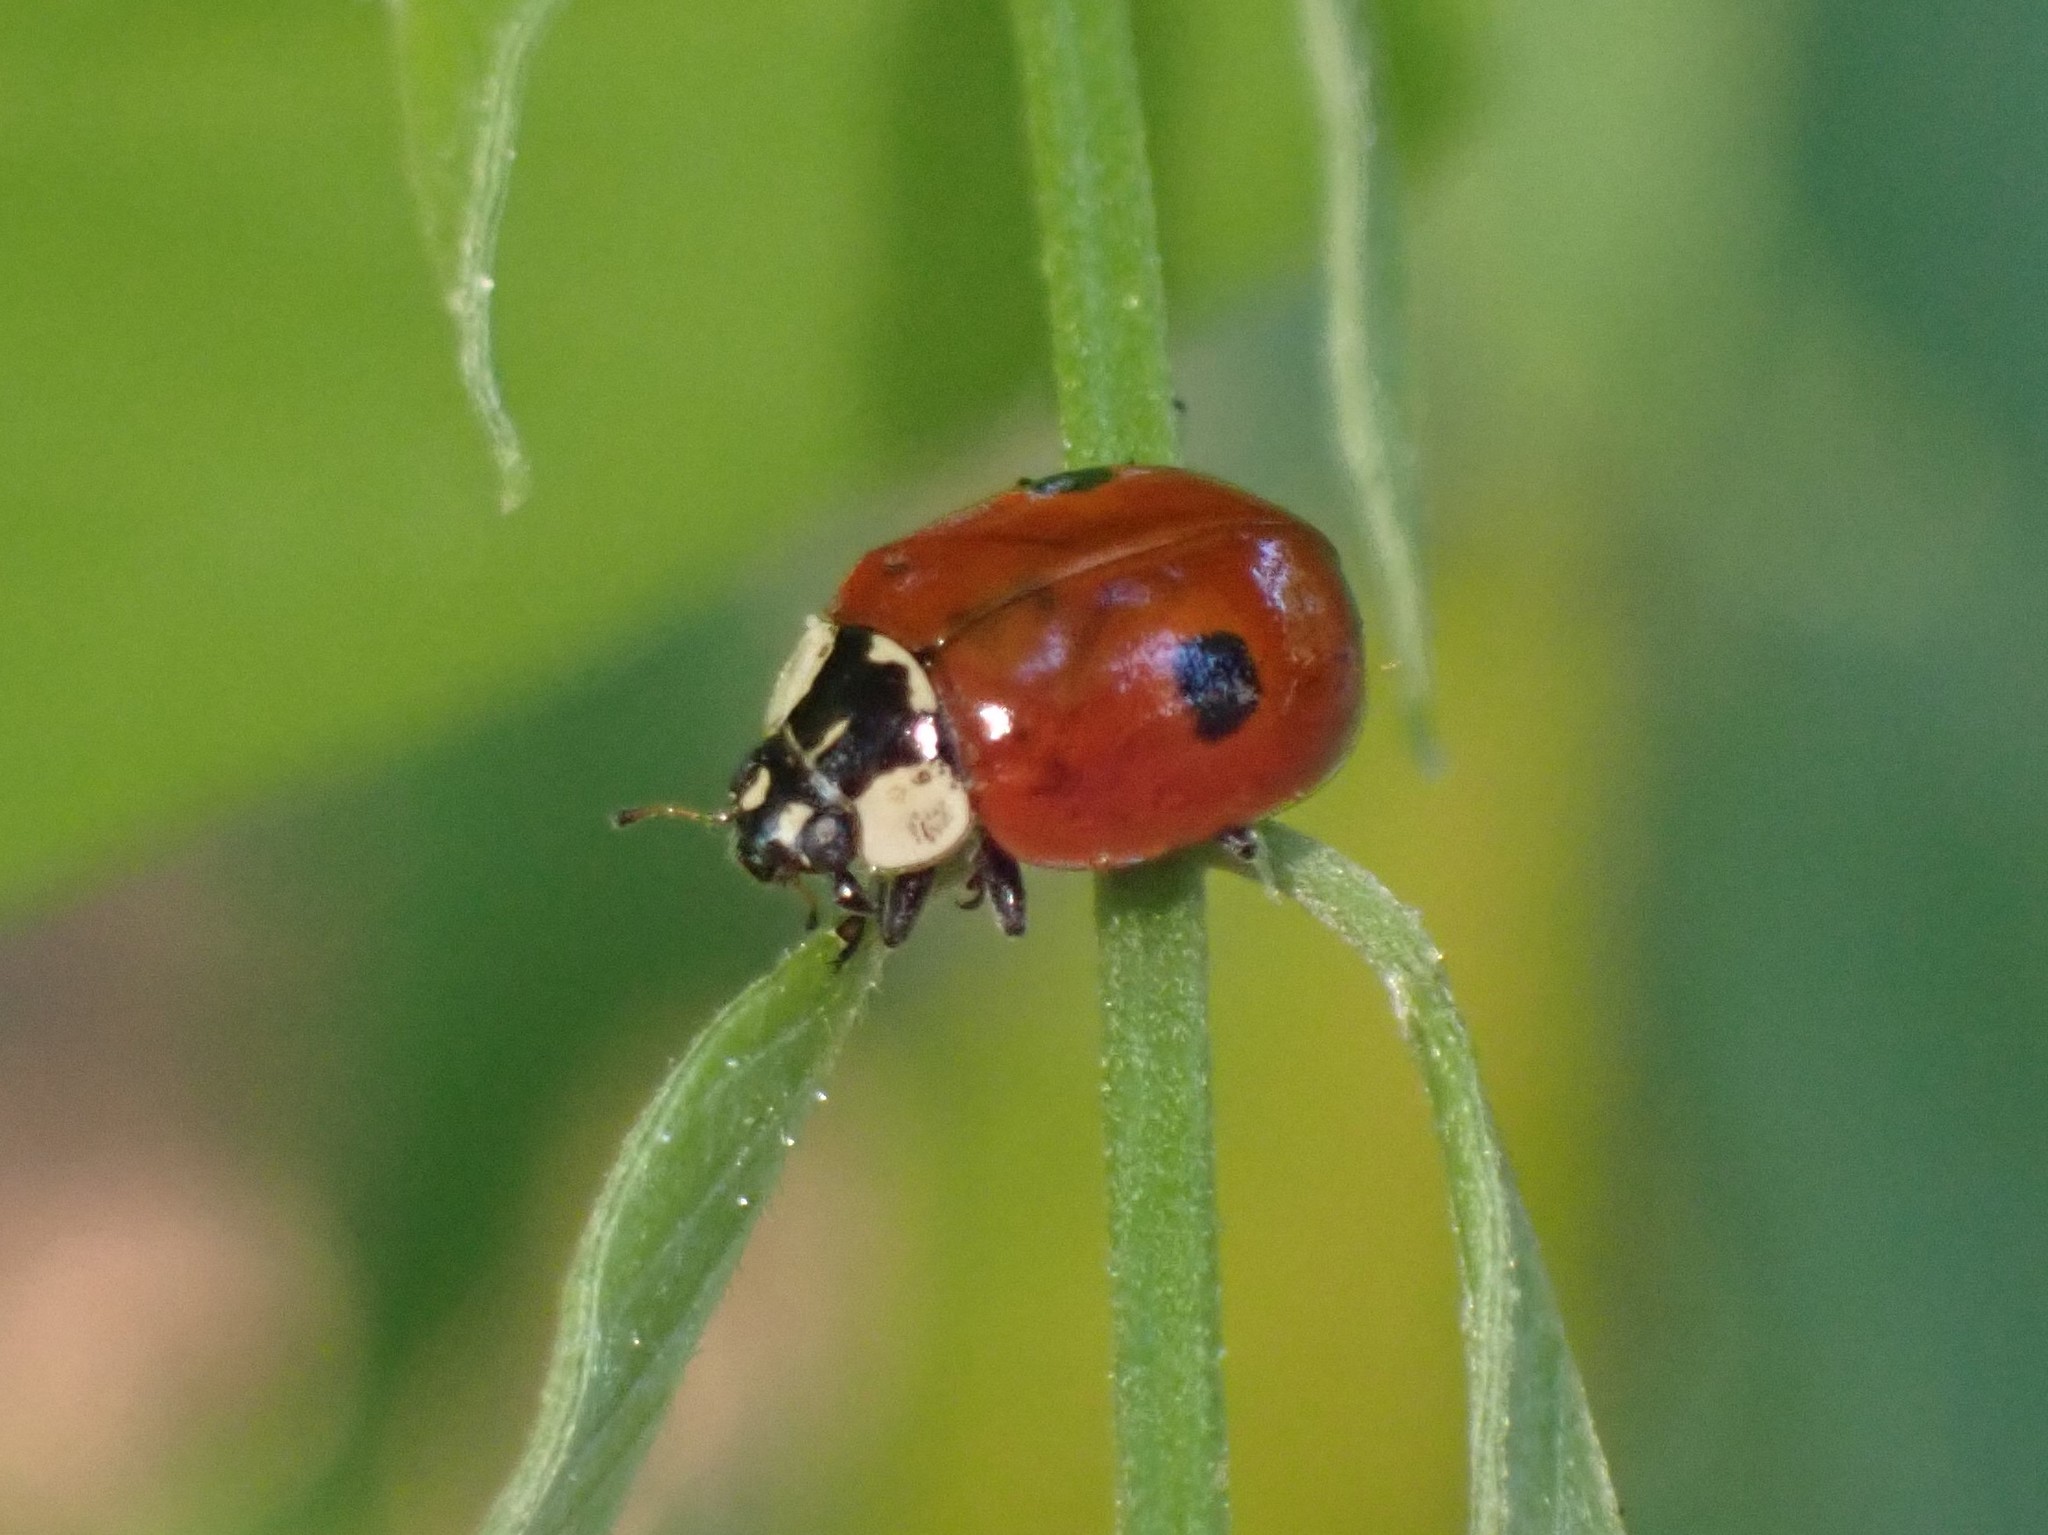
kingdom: Animalia
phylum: Arthropoda
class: Insecta
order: Coleoptera
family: Coccinellidae
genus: Adalia
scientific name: Adalia bipunctata
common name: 2-spot ladybird
